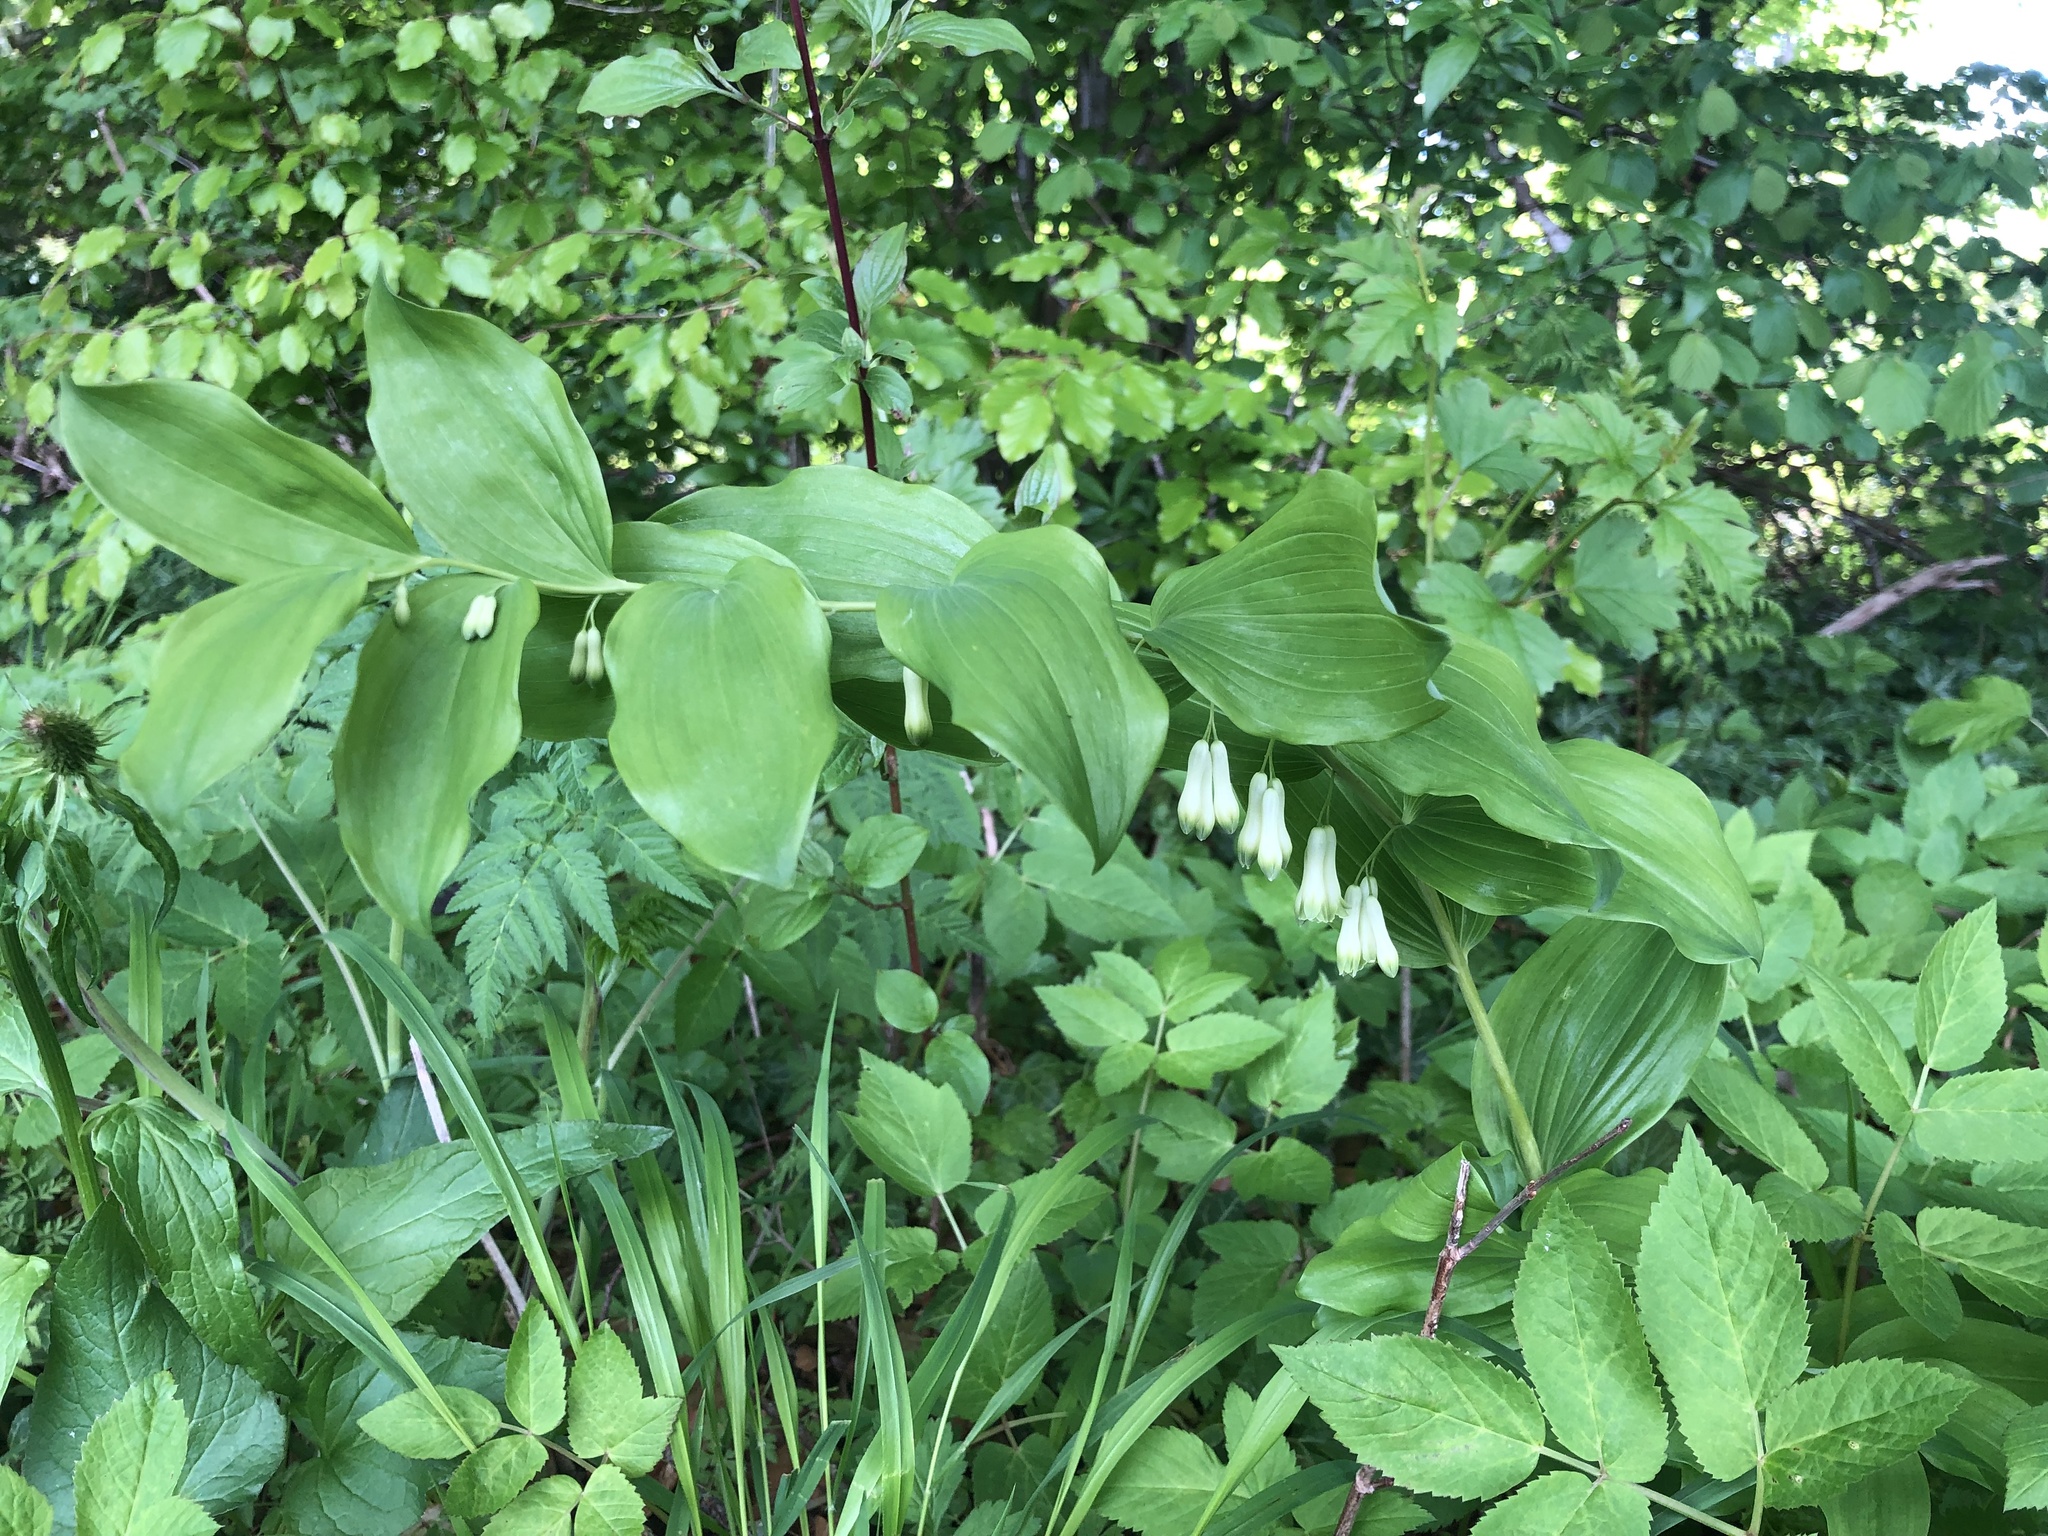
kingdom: Plantae
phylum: Tracheophyta
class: Liliopsida
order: Asparagales
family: Asparagaceae
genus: Polygonatum
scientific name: Polygonatum multiflorum
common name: Solomon's-seal
